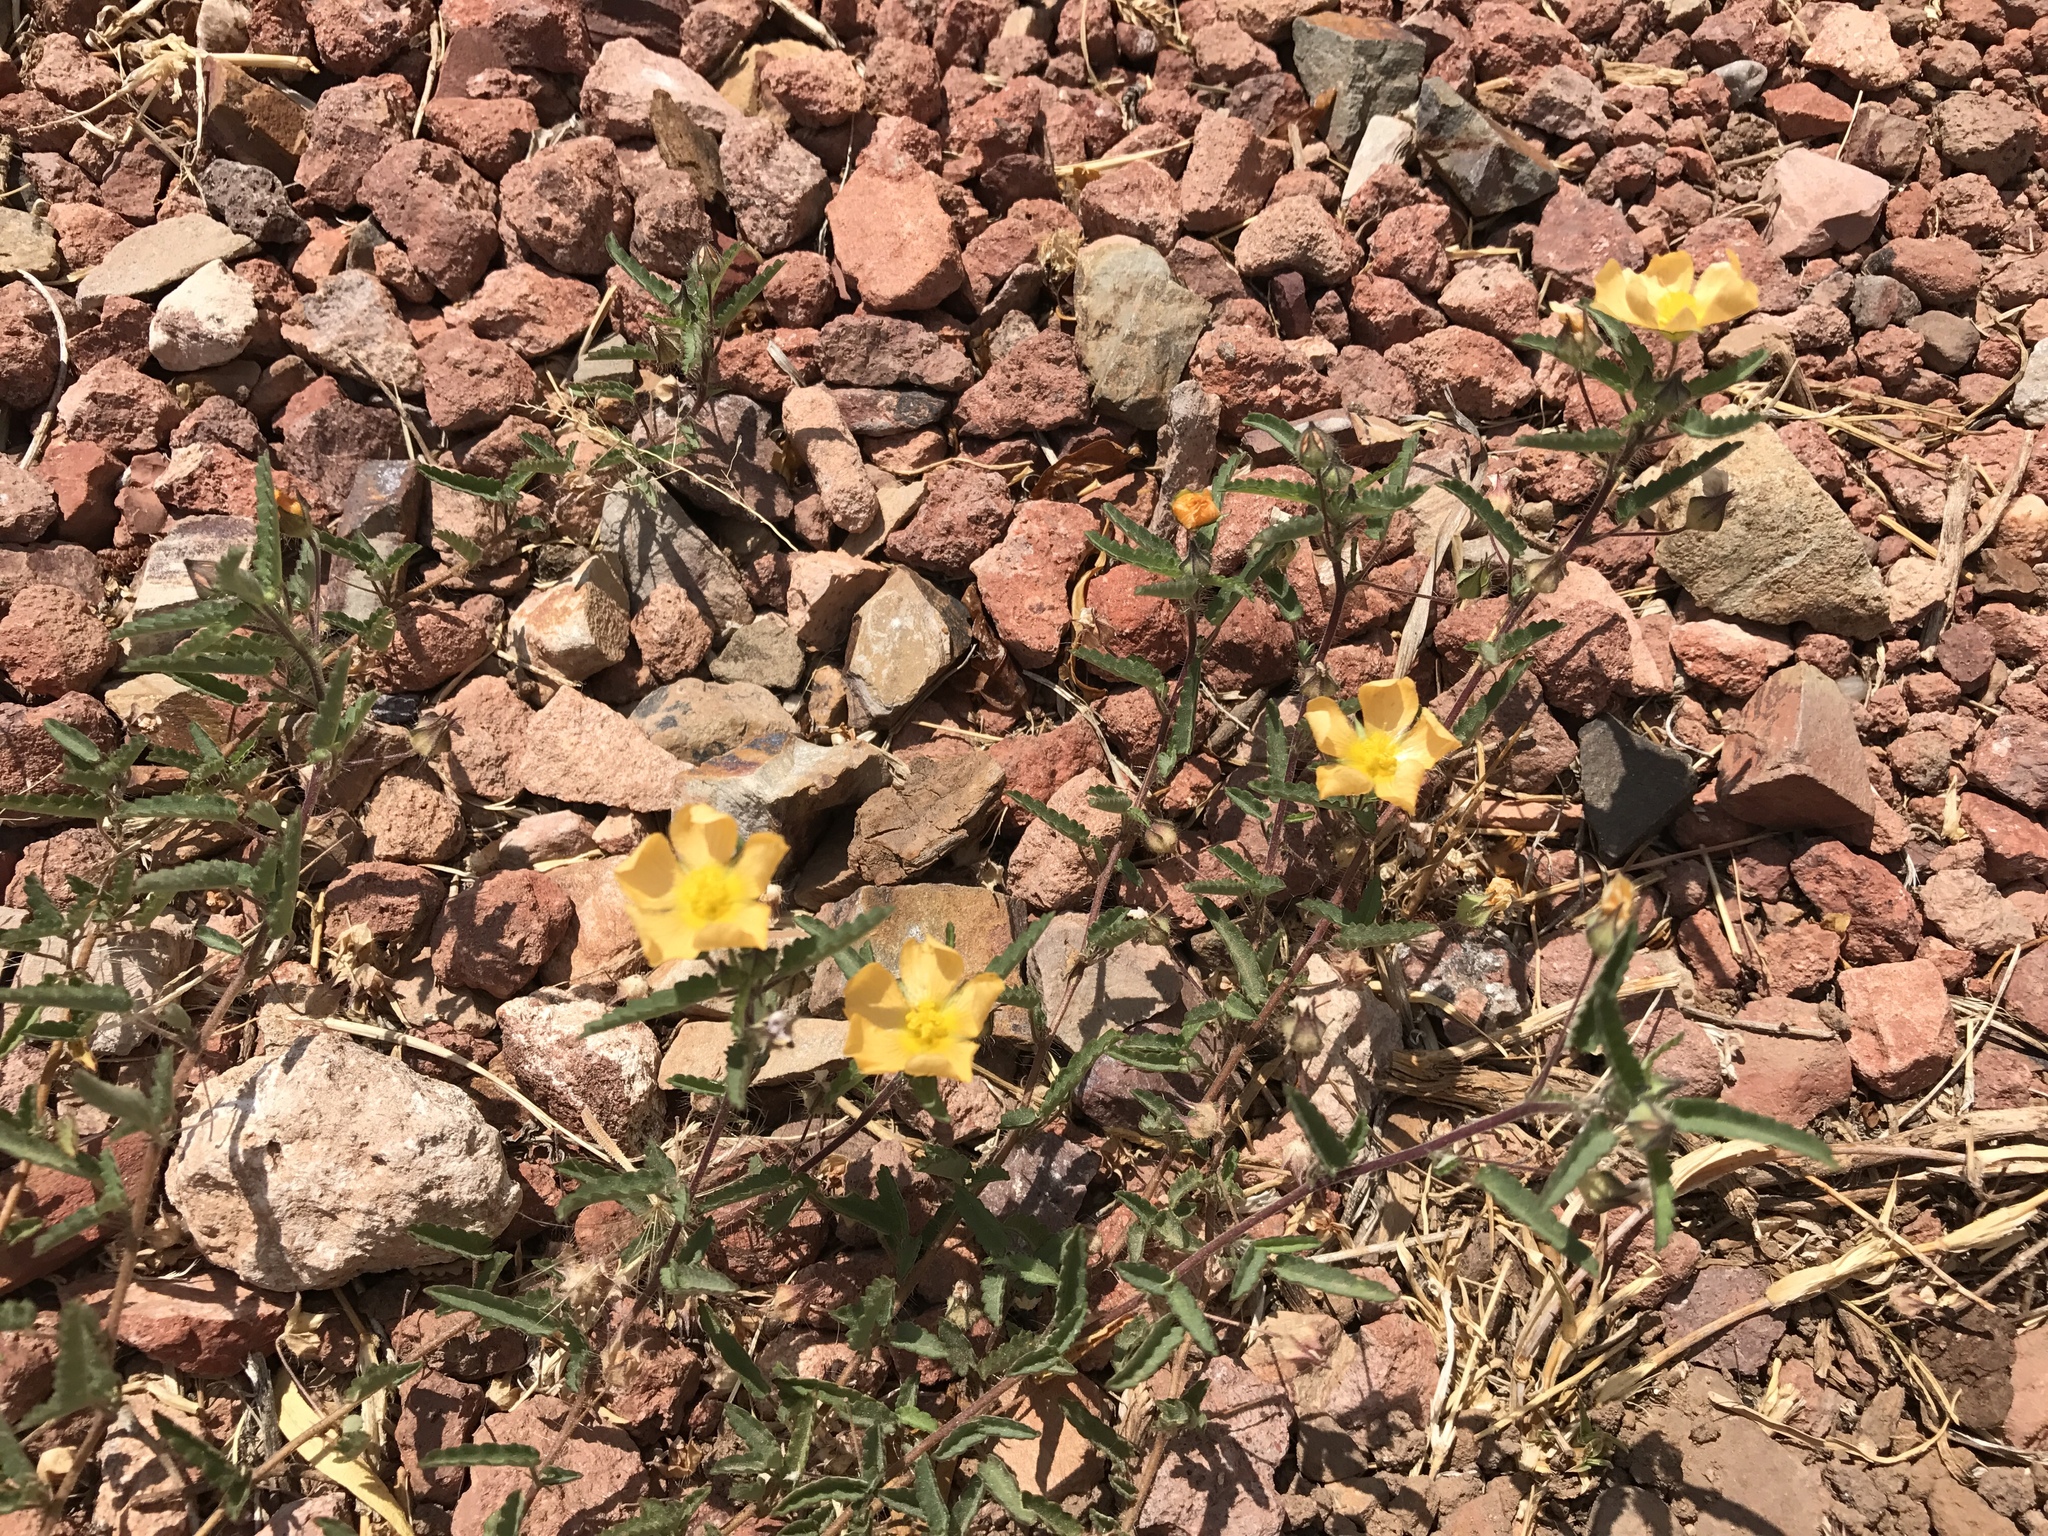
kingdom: Plantae
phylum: Tracheophyta
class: Magnoliopsida
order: Malvales
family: Malvaceae
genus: Sida
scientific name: Sida abutilifolia
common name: Spreading fanpetals
